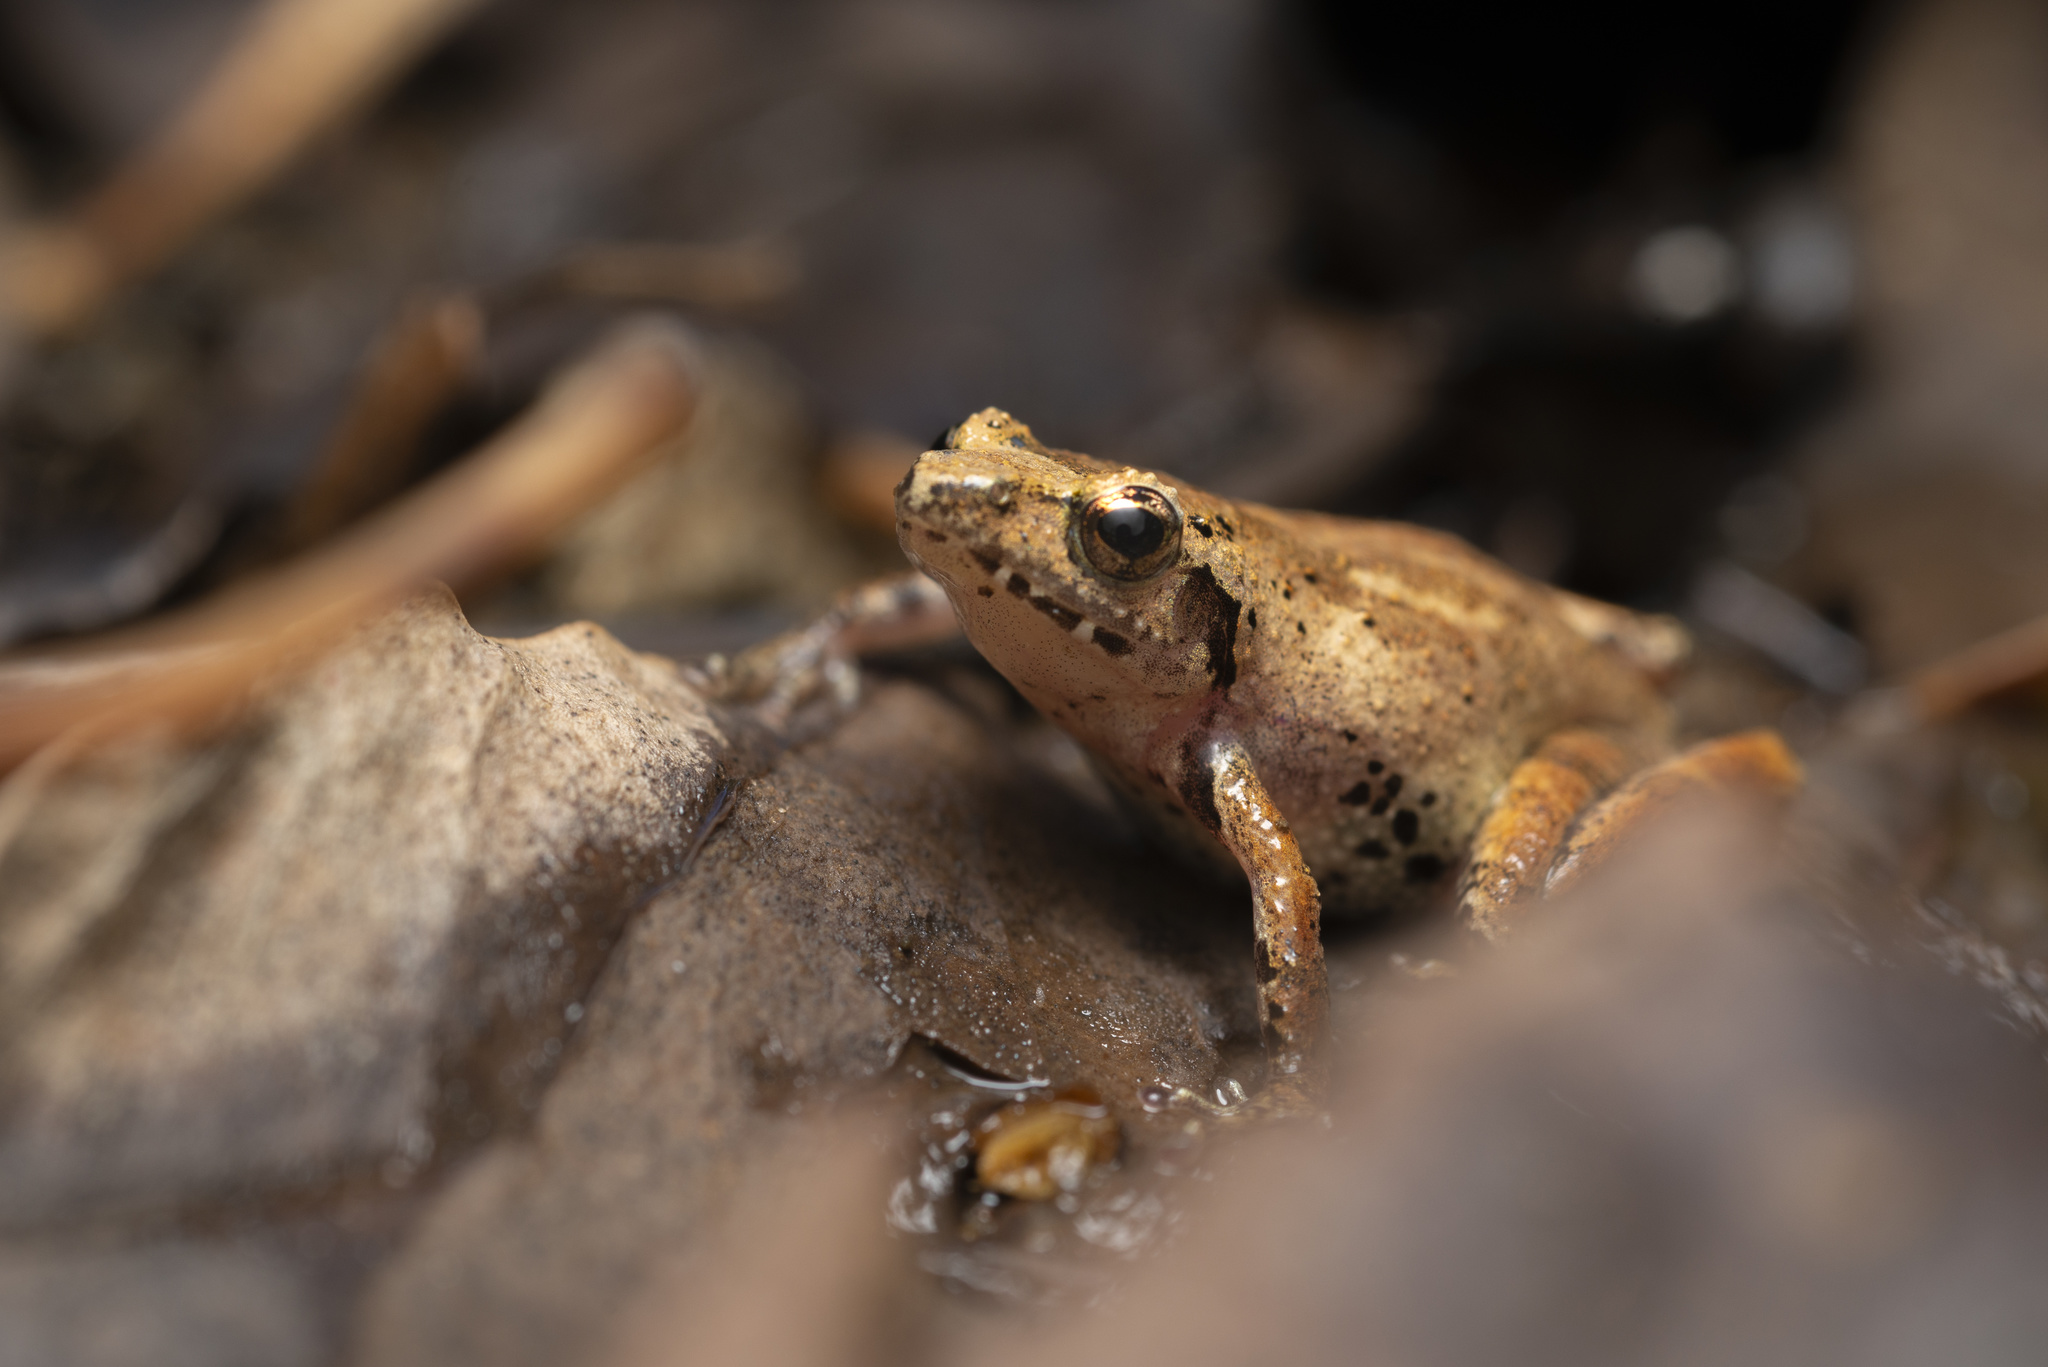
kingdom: Animalia
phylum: Chordata
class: Amphibia
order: Anura
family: Rhacophoridae
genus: Liuixalus
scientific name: Liuixalus romeri
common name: Romer's bubble-nest frog
